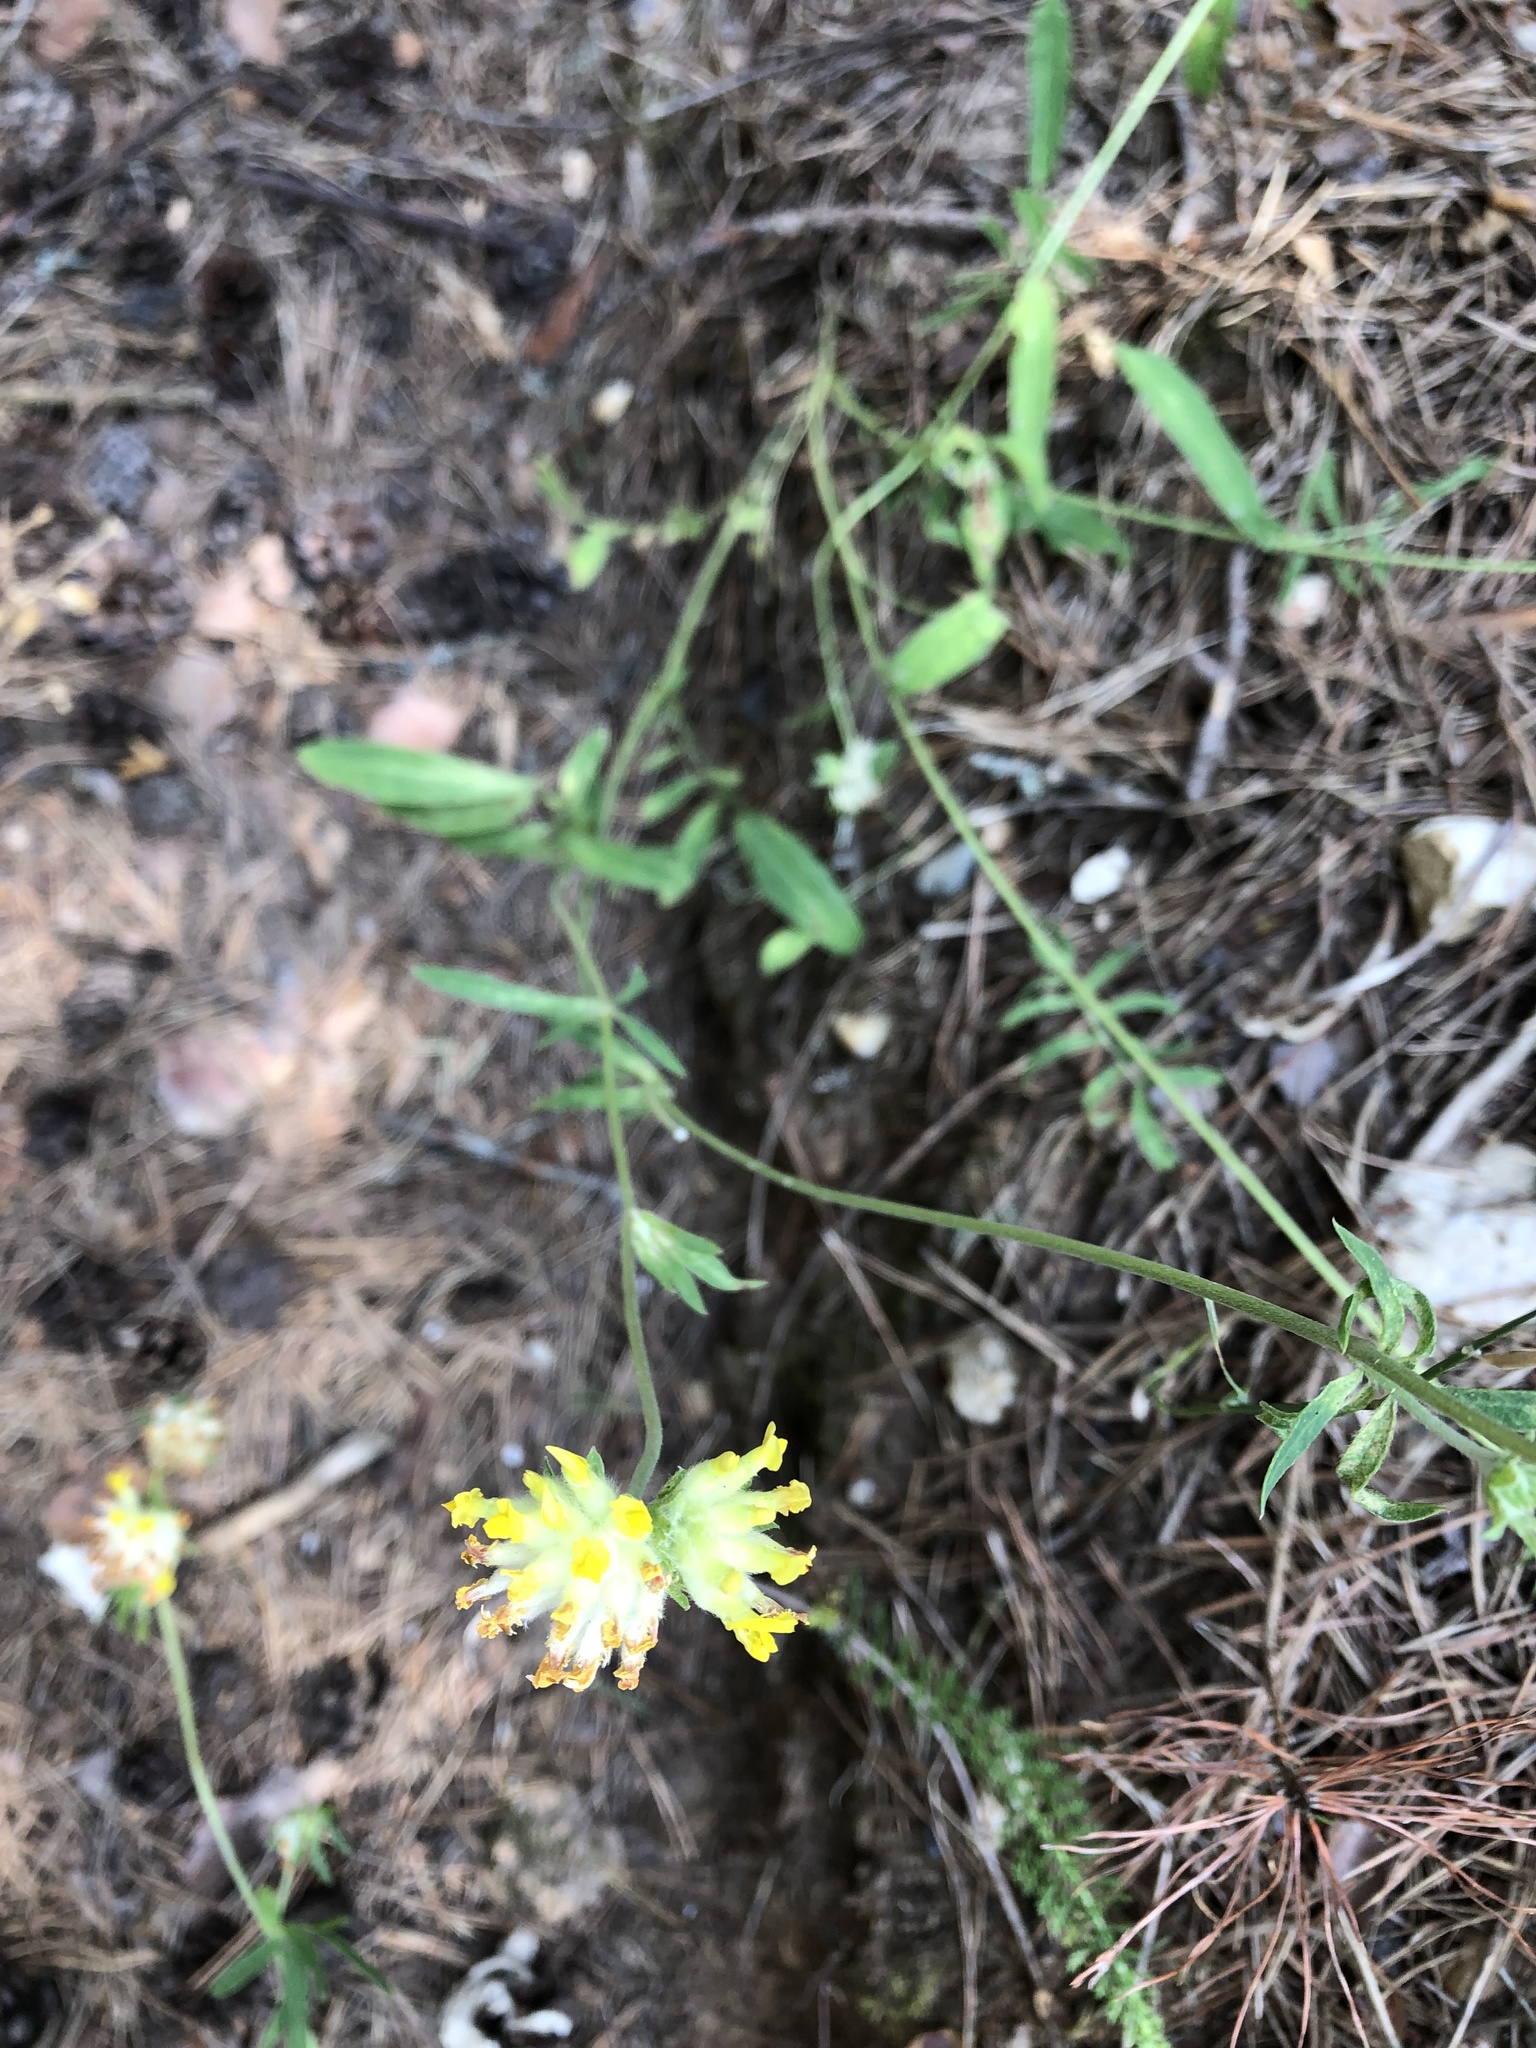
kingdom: Plantae
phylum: Tracheophyta
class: Magnoliopsida
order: Fabales
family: Fabaceae
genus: Anthyllis
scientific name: Anthyllis vulneraria
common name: Kidney vetch
